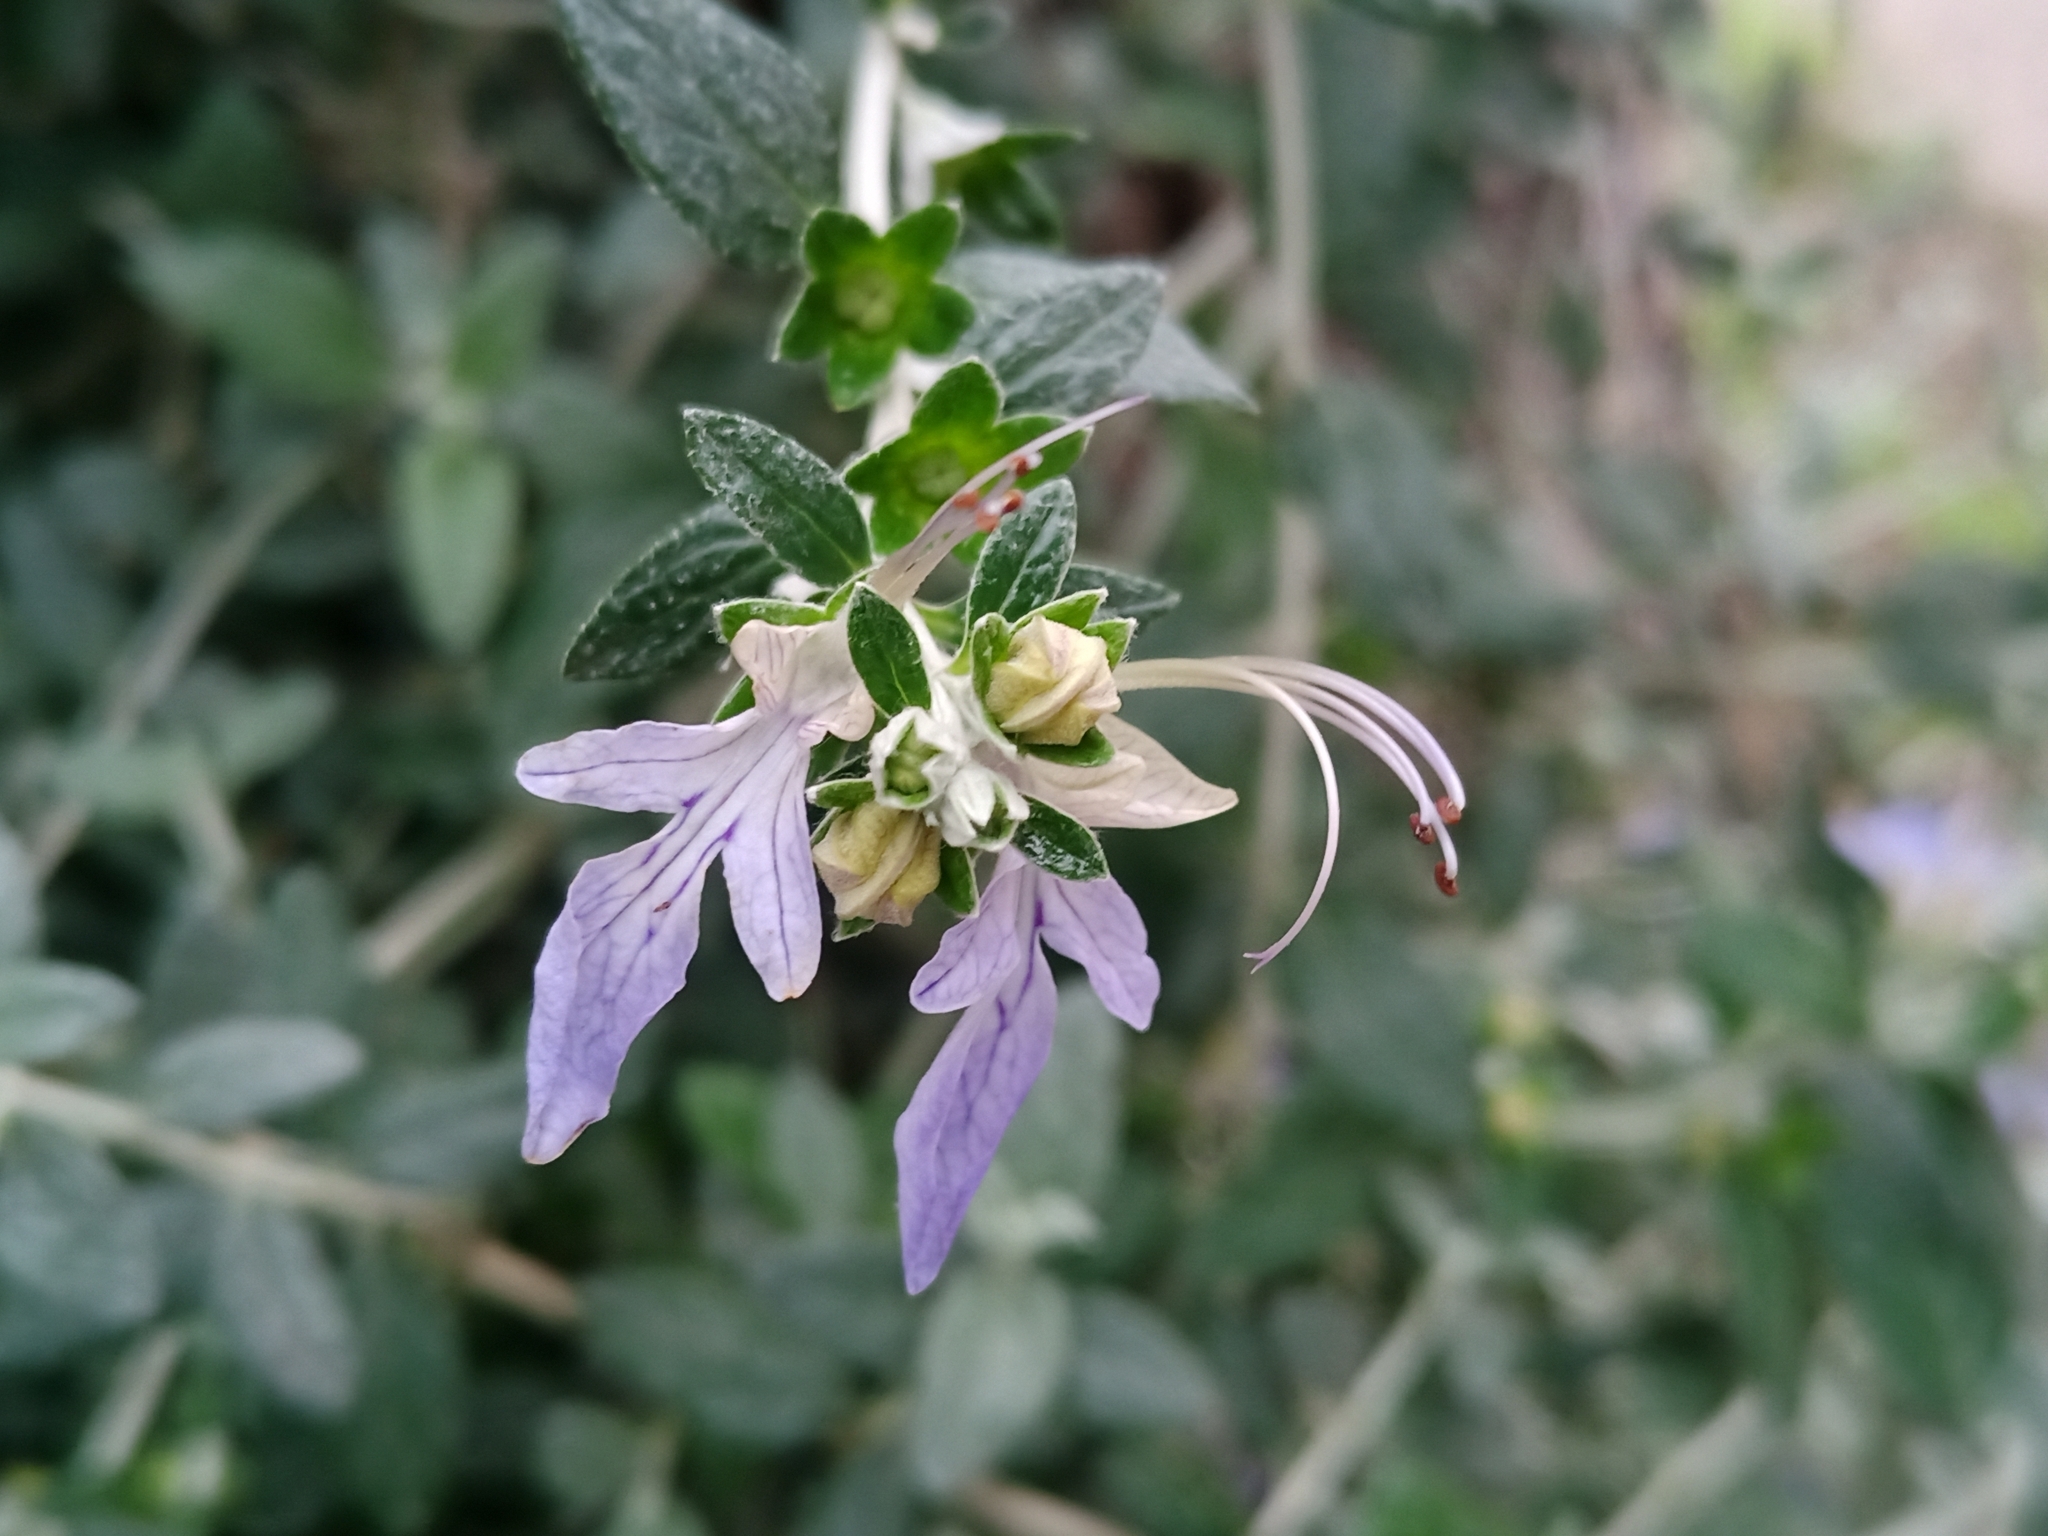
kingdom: Plantae
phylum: Tracheophyta
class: Magnoliopsida
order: Lamiales
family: Lamiaceae
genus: Teucrium
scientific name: Teucrium fruticans
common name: Shrubby germander
